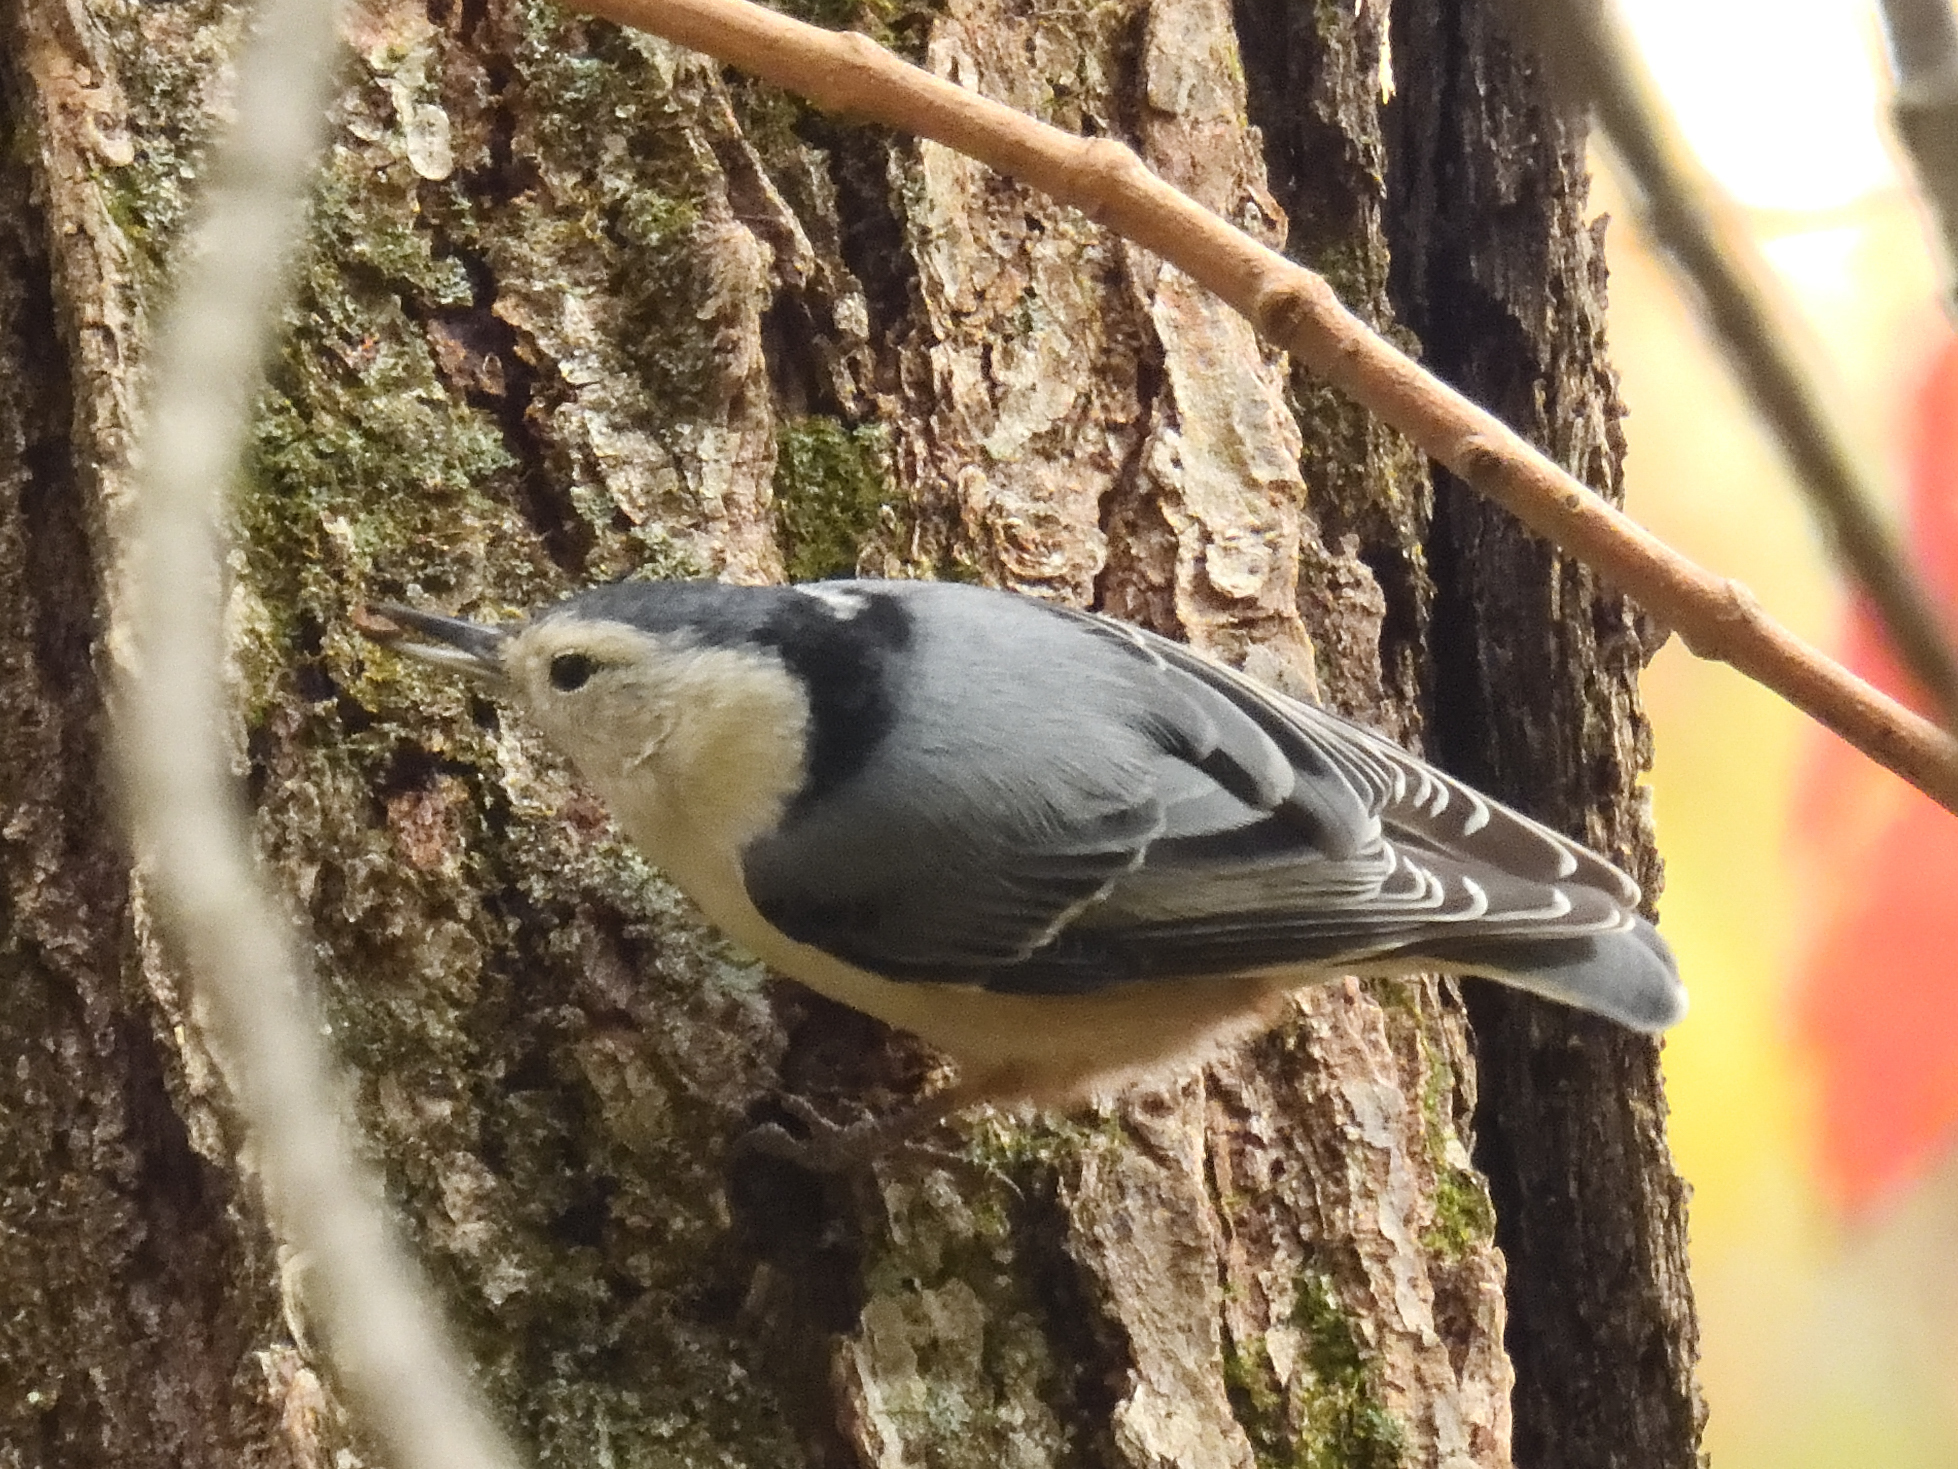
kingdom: Animalia
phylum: Chordata
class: Aves
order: Passeriformes
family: Sittidae
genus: Sitta
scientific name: Sitta carolinensis
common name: White-breasted nuthatch
